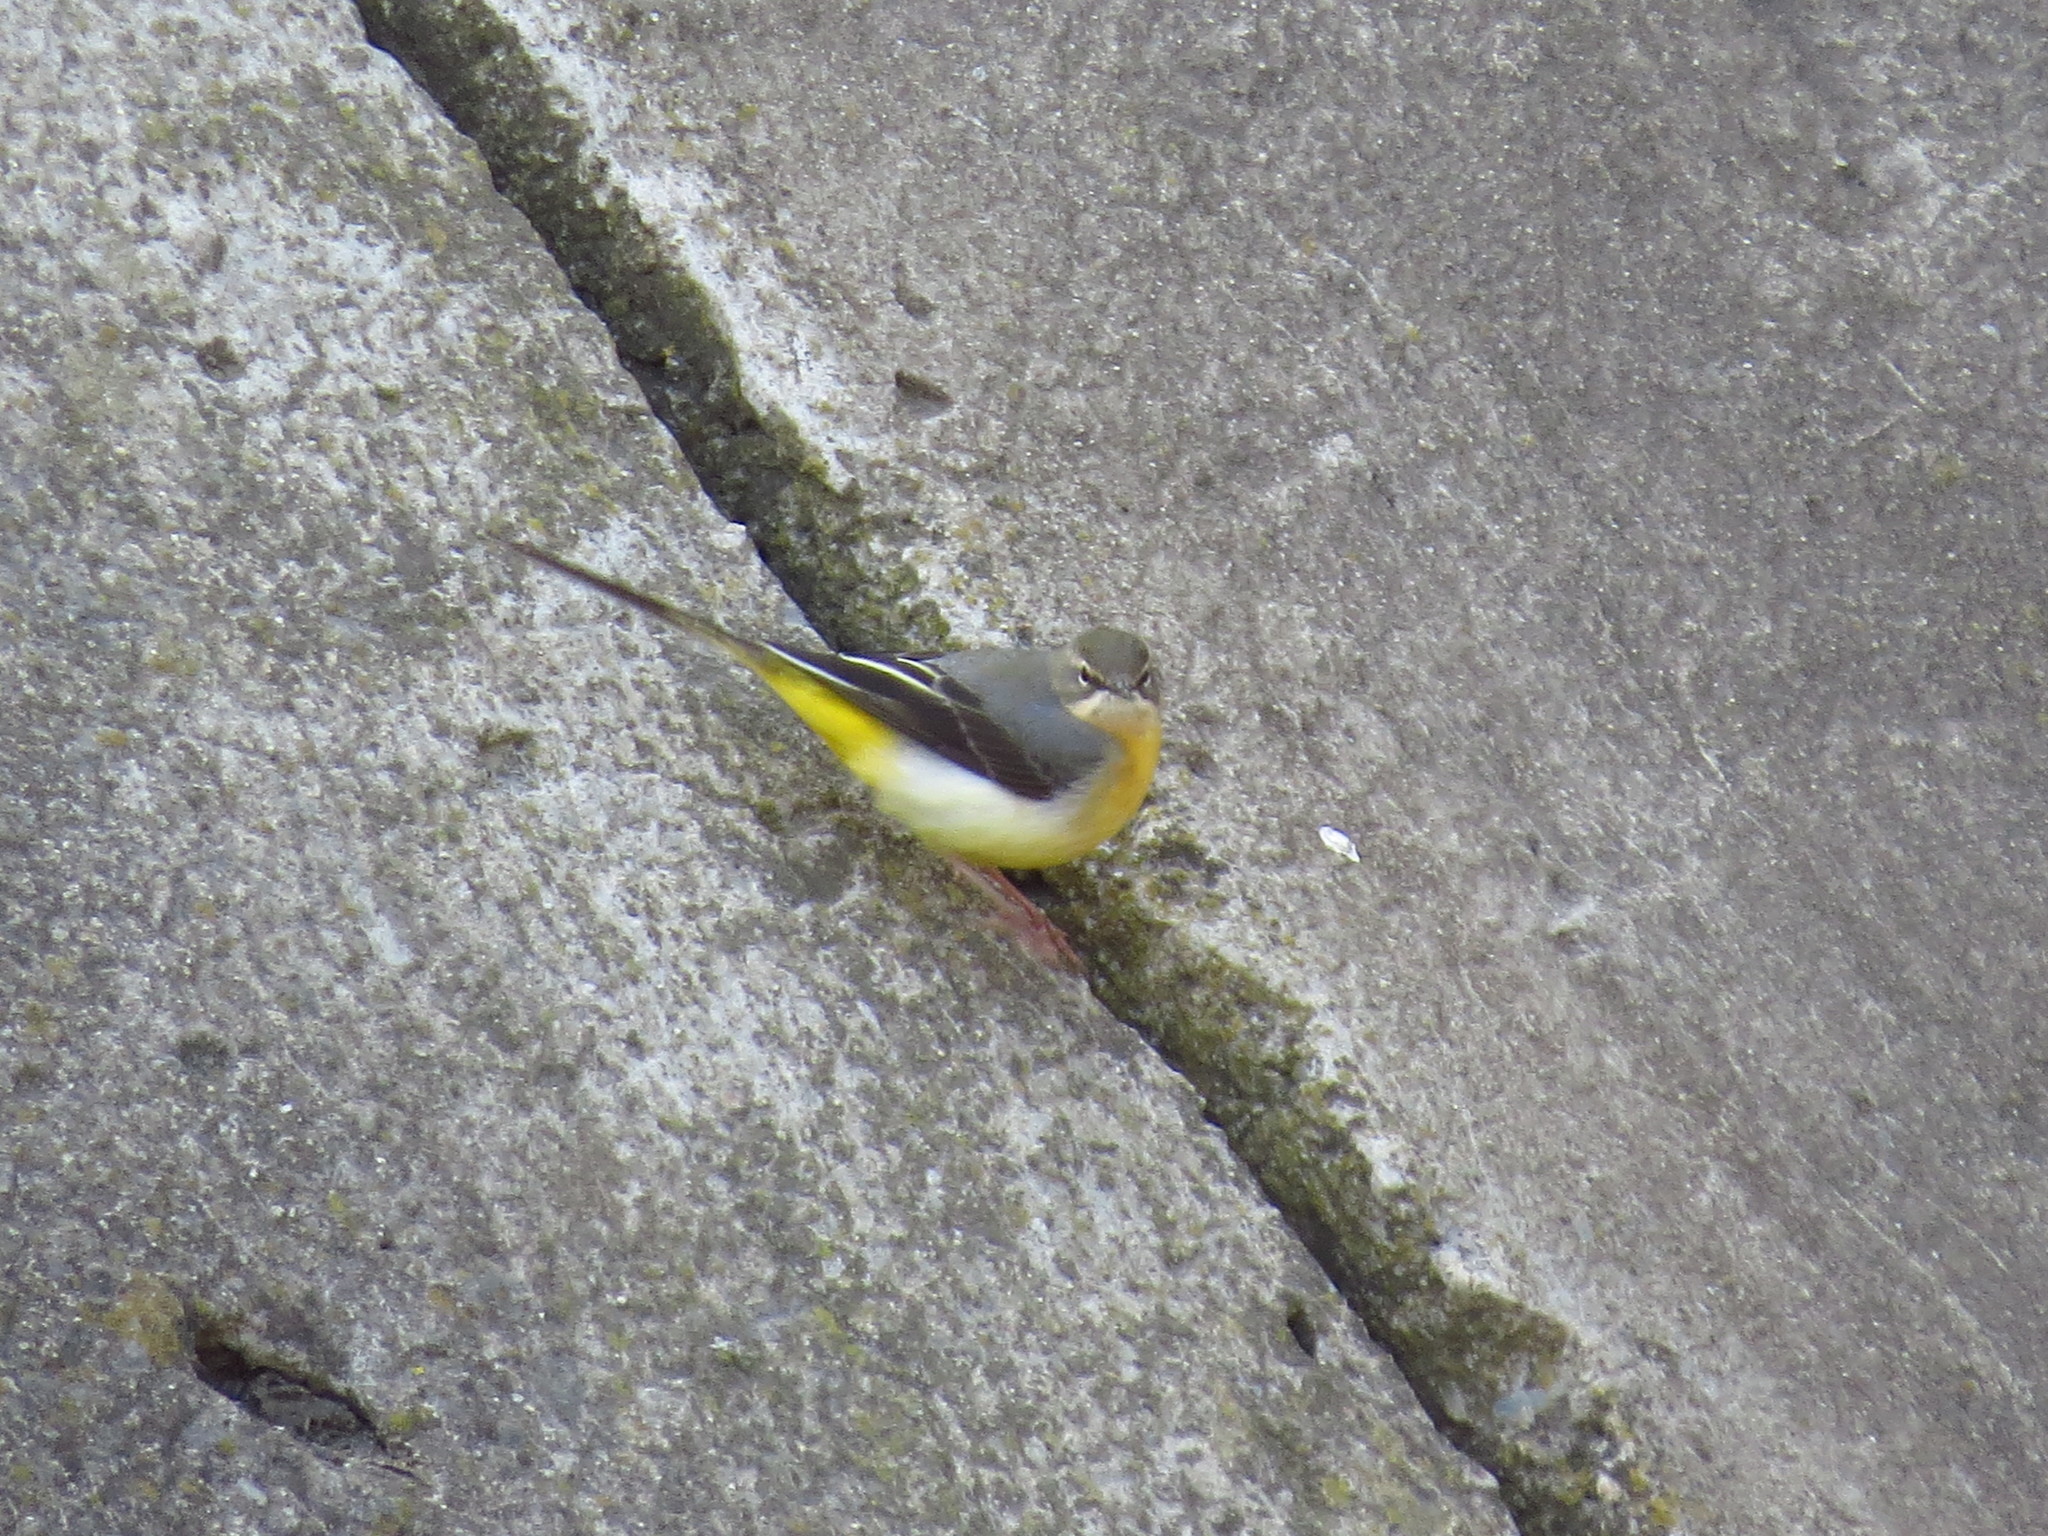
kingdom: Animalia
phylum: Chordata
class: Aves
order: Passeriformes
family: Motacillidae
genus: Motacilla
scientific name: Motacilla cinerea
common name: Grey wagtail
